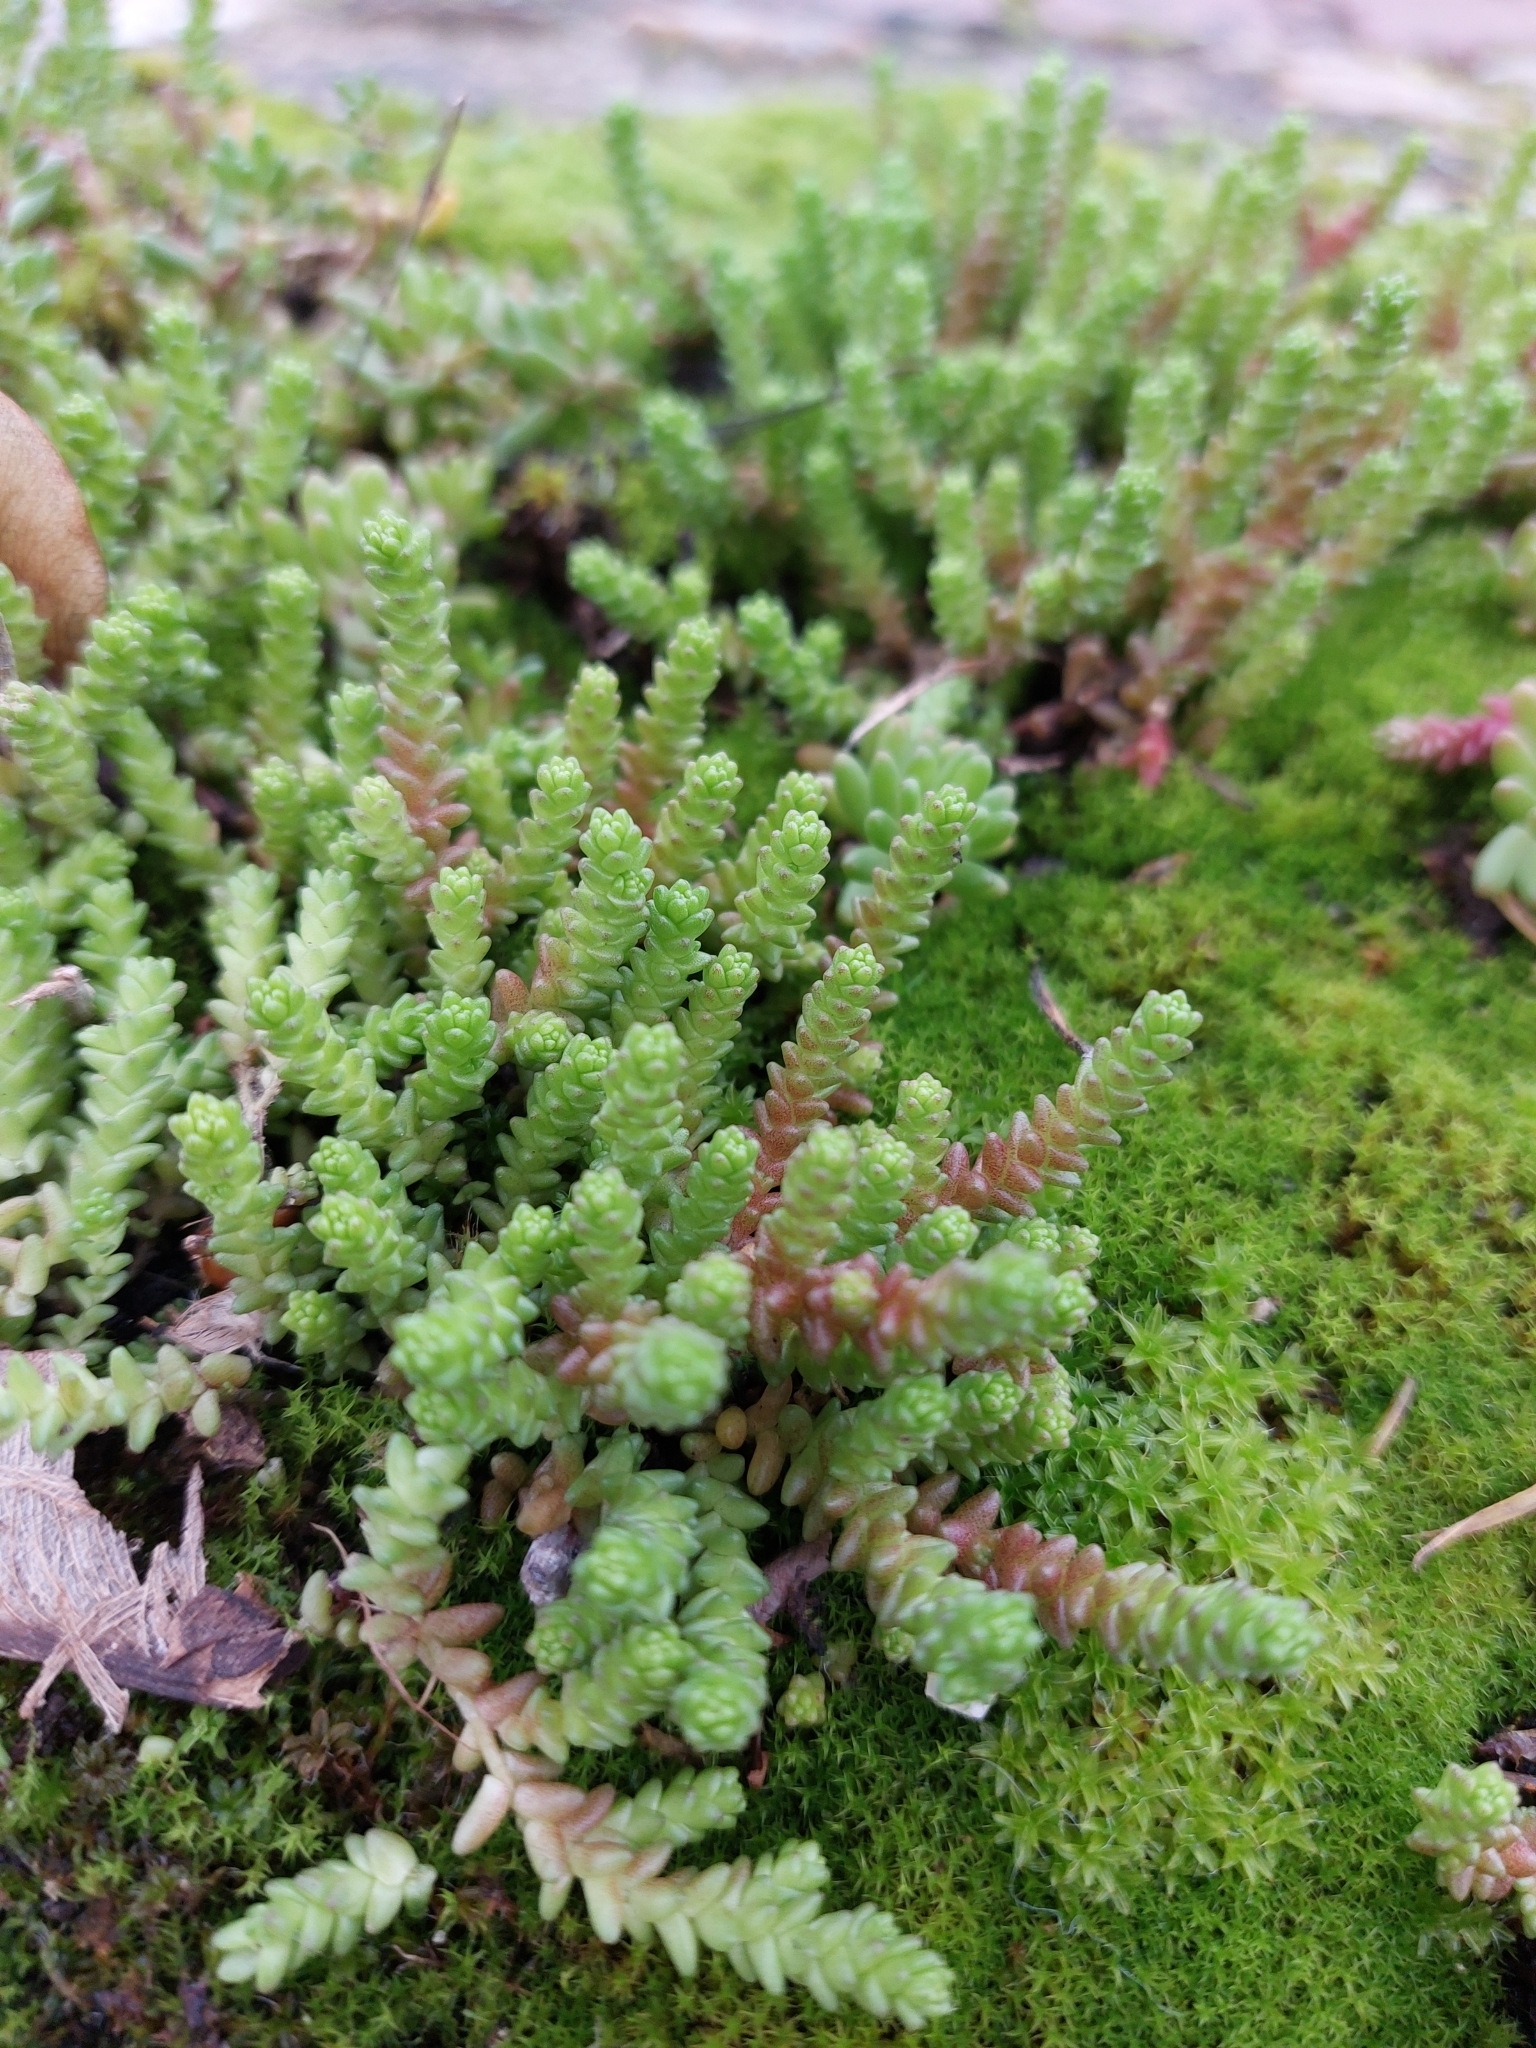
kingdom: Plantae
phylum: Tracheophyta
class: Magnoliopsida
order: Saxifragales
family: Crassulaceae
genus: Sedum
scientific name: Sedum acre
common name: Biting stonecrop
